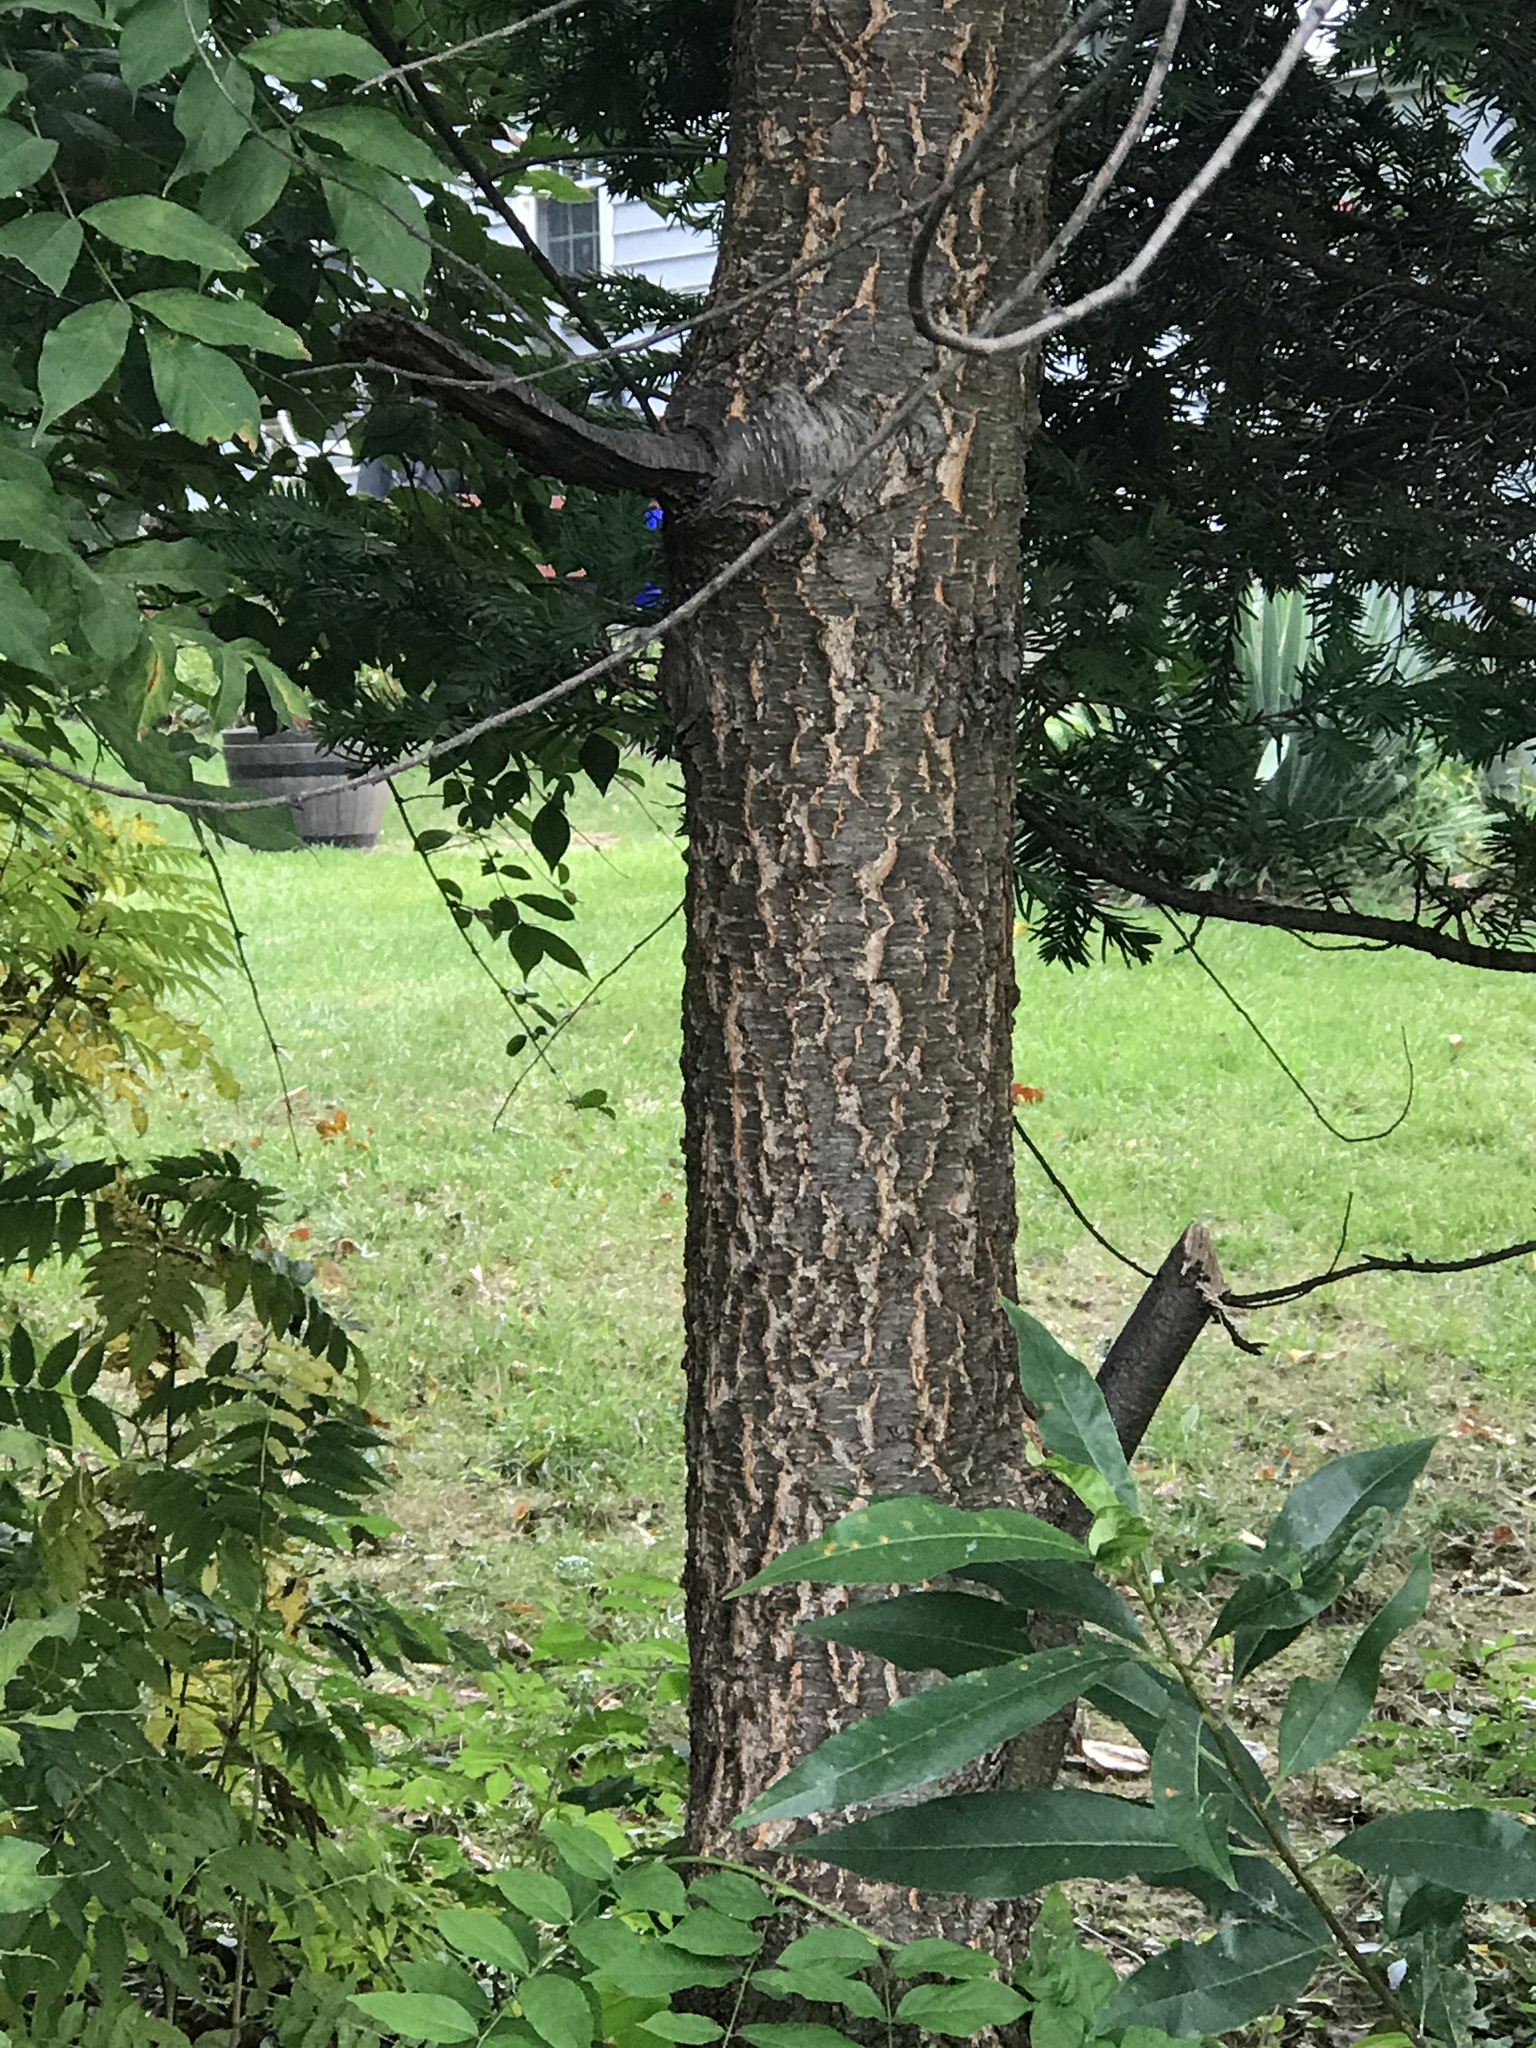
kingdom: Plantae
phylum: Tracheophyta
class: Magnoliopsida
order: Rosales
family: Rosaceae
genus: Prunus
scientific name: Prunus serotina
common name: Black cherry
